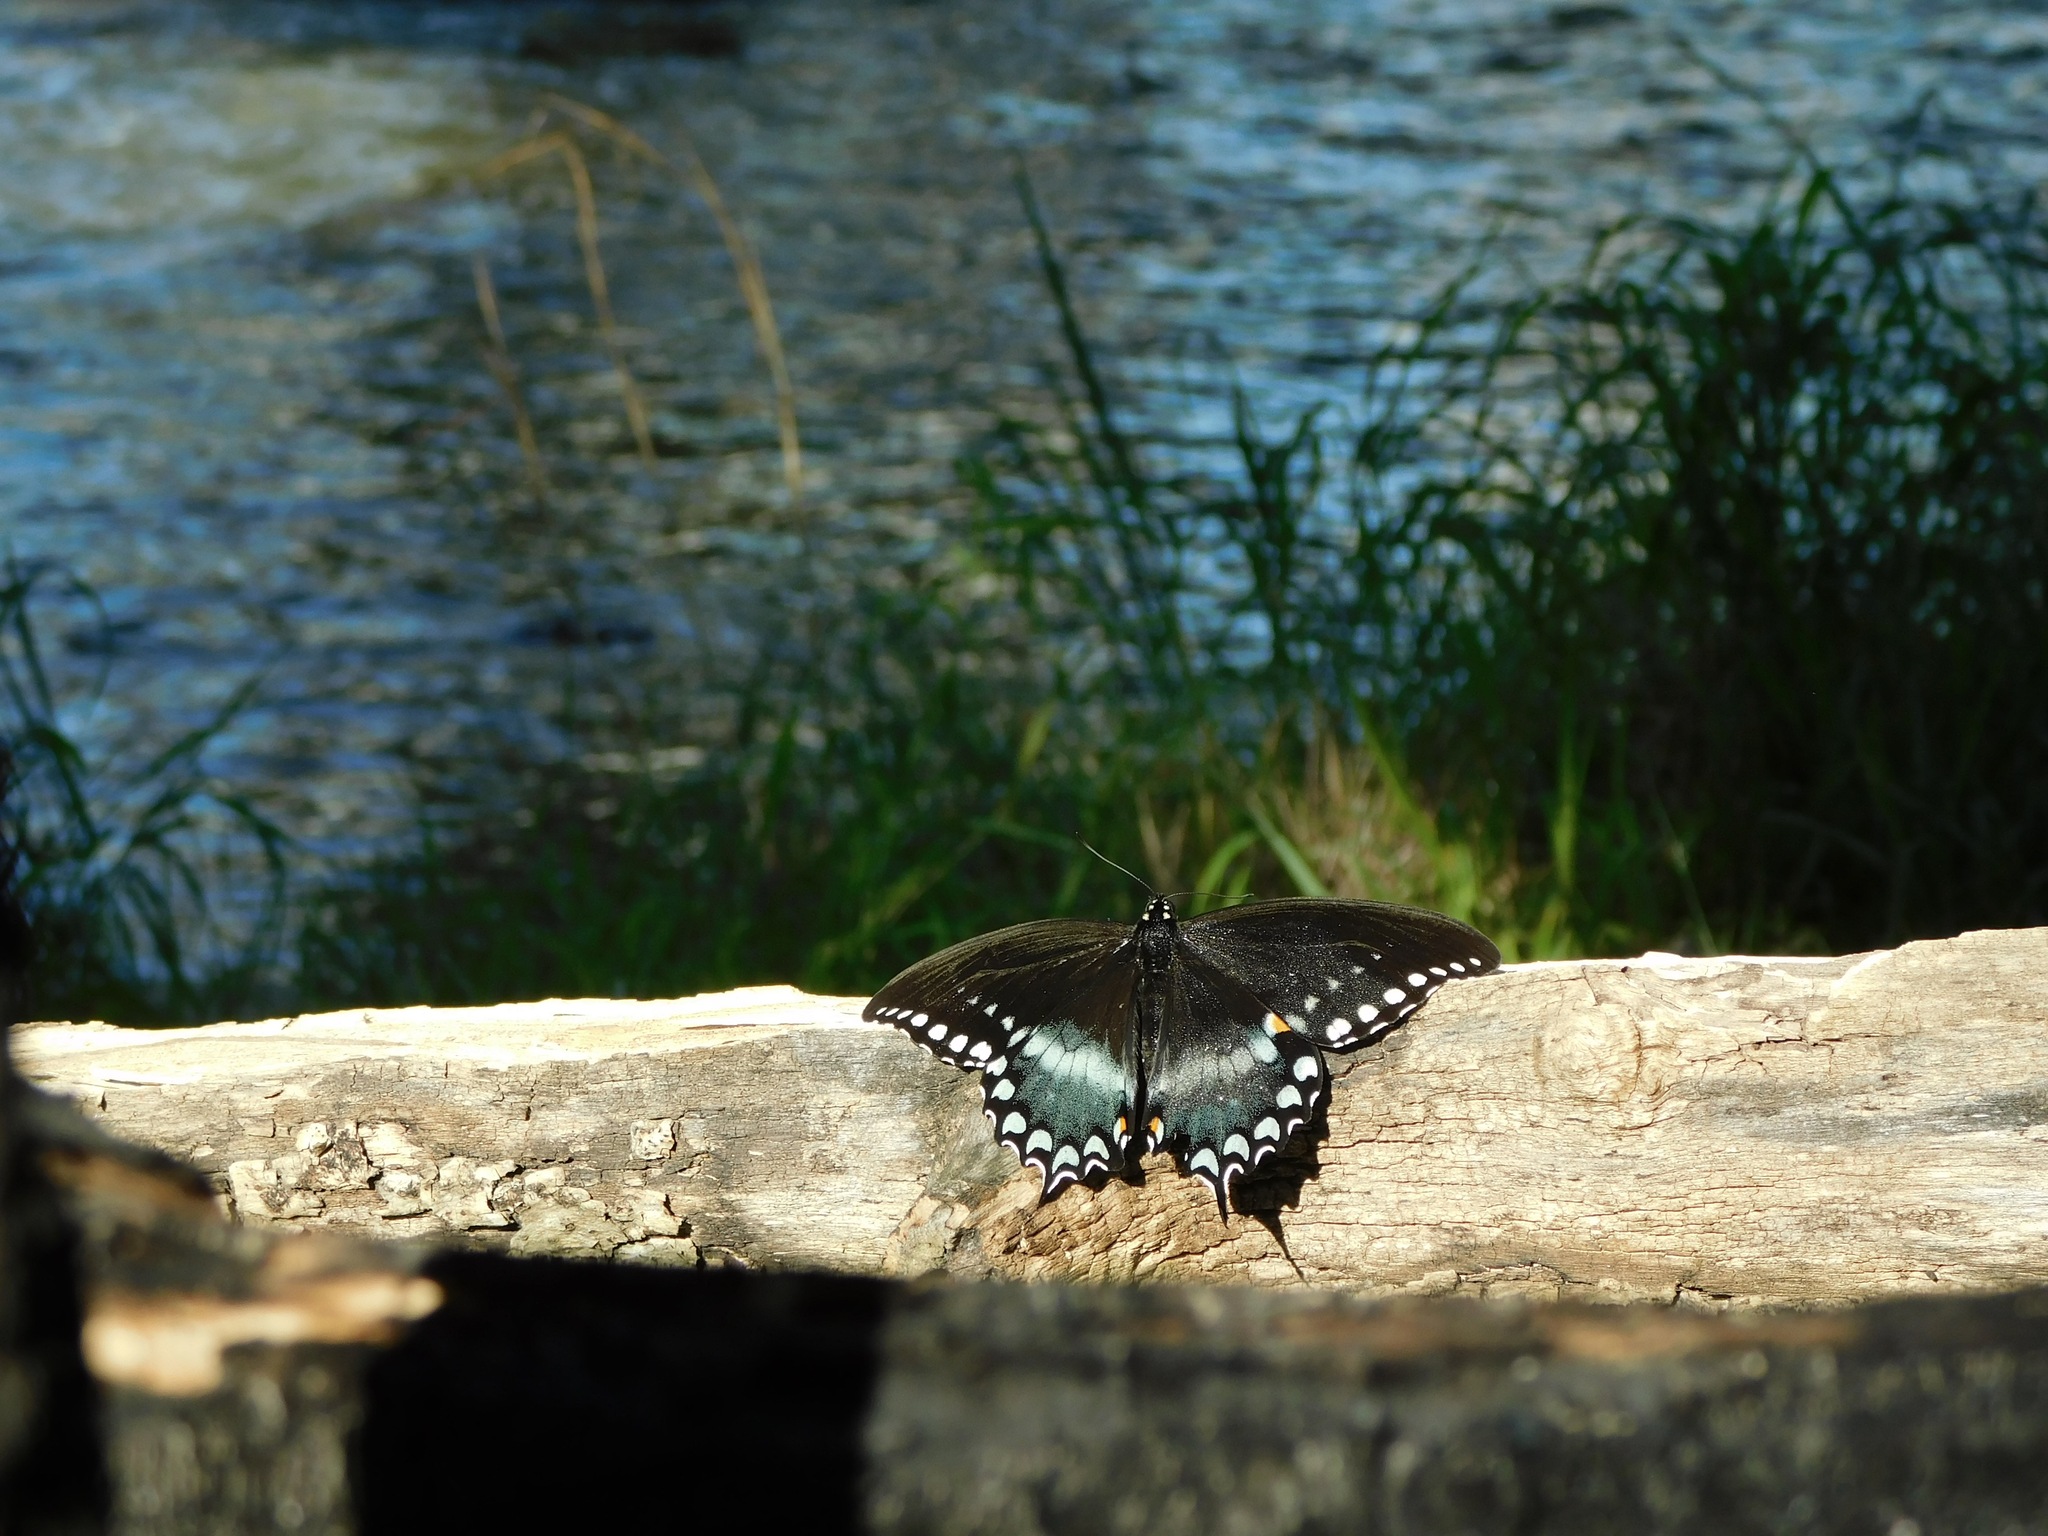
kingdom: Animalia
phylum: Arthropoda
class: Insecta
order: Lepidoptera
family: Papilionidae
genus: Papilio
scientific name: Papilio troilus
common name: Spicebush swallowtail
